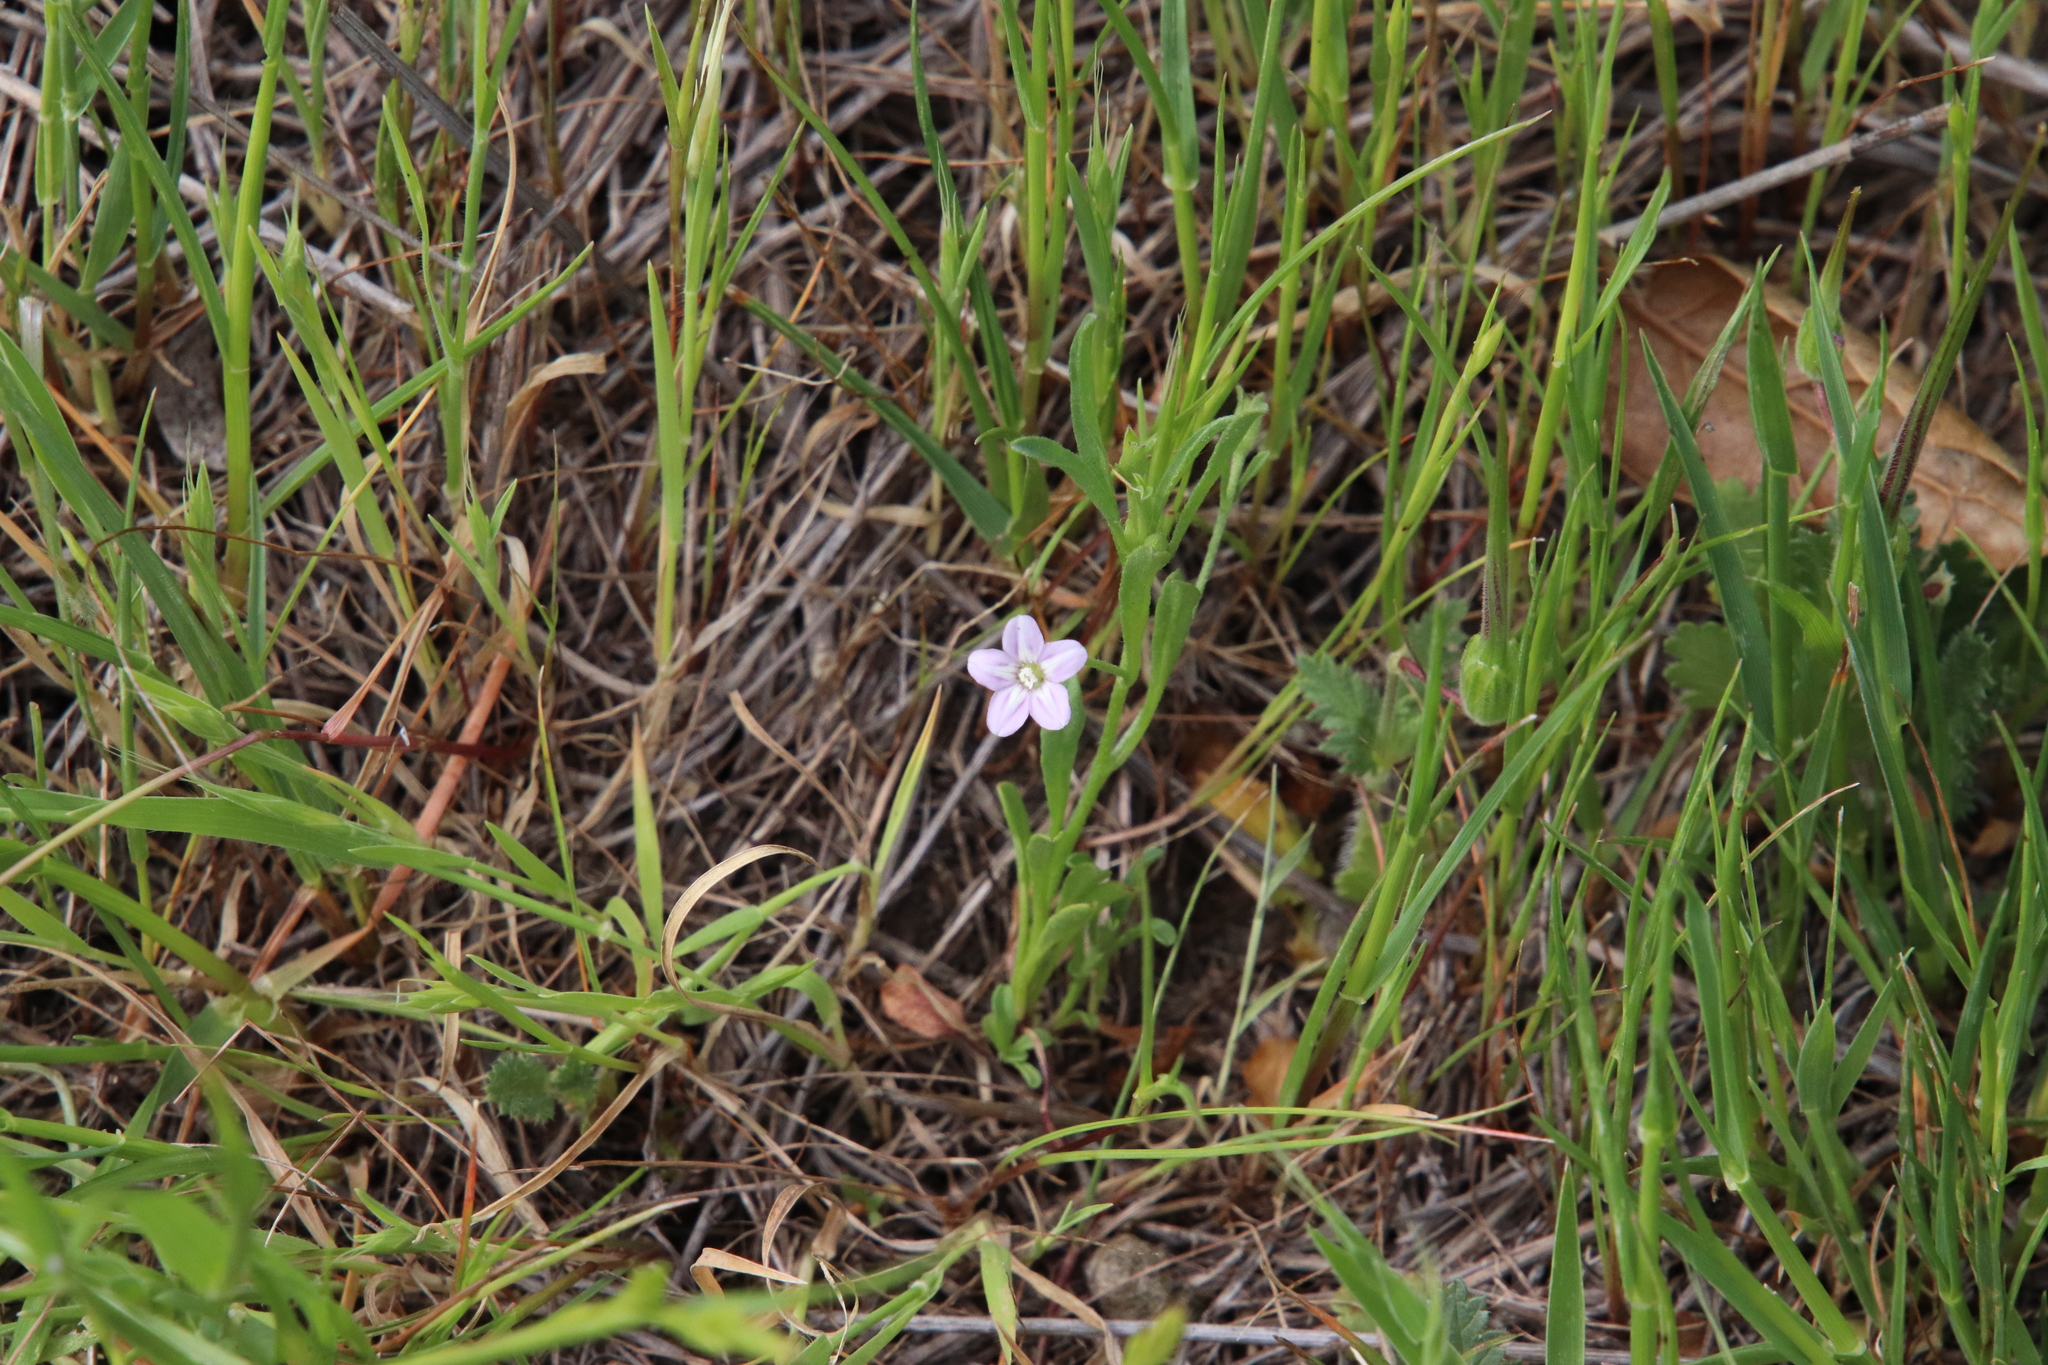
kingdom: Plantae
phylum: Tracheophyta
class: Magnoliopsida
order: Solanales
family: Convolvulaceae
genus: Convolvulus
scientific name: Convolvulus simulans
